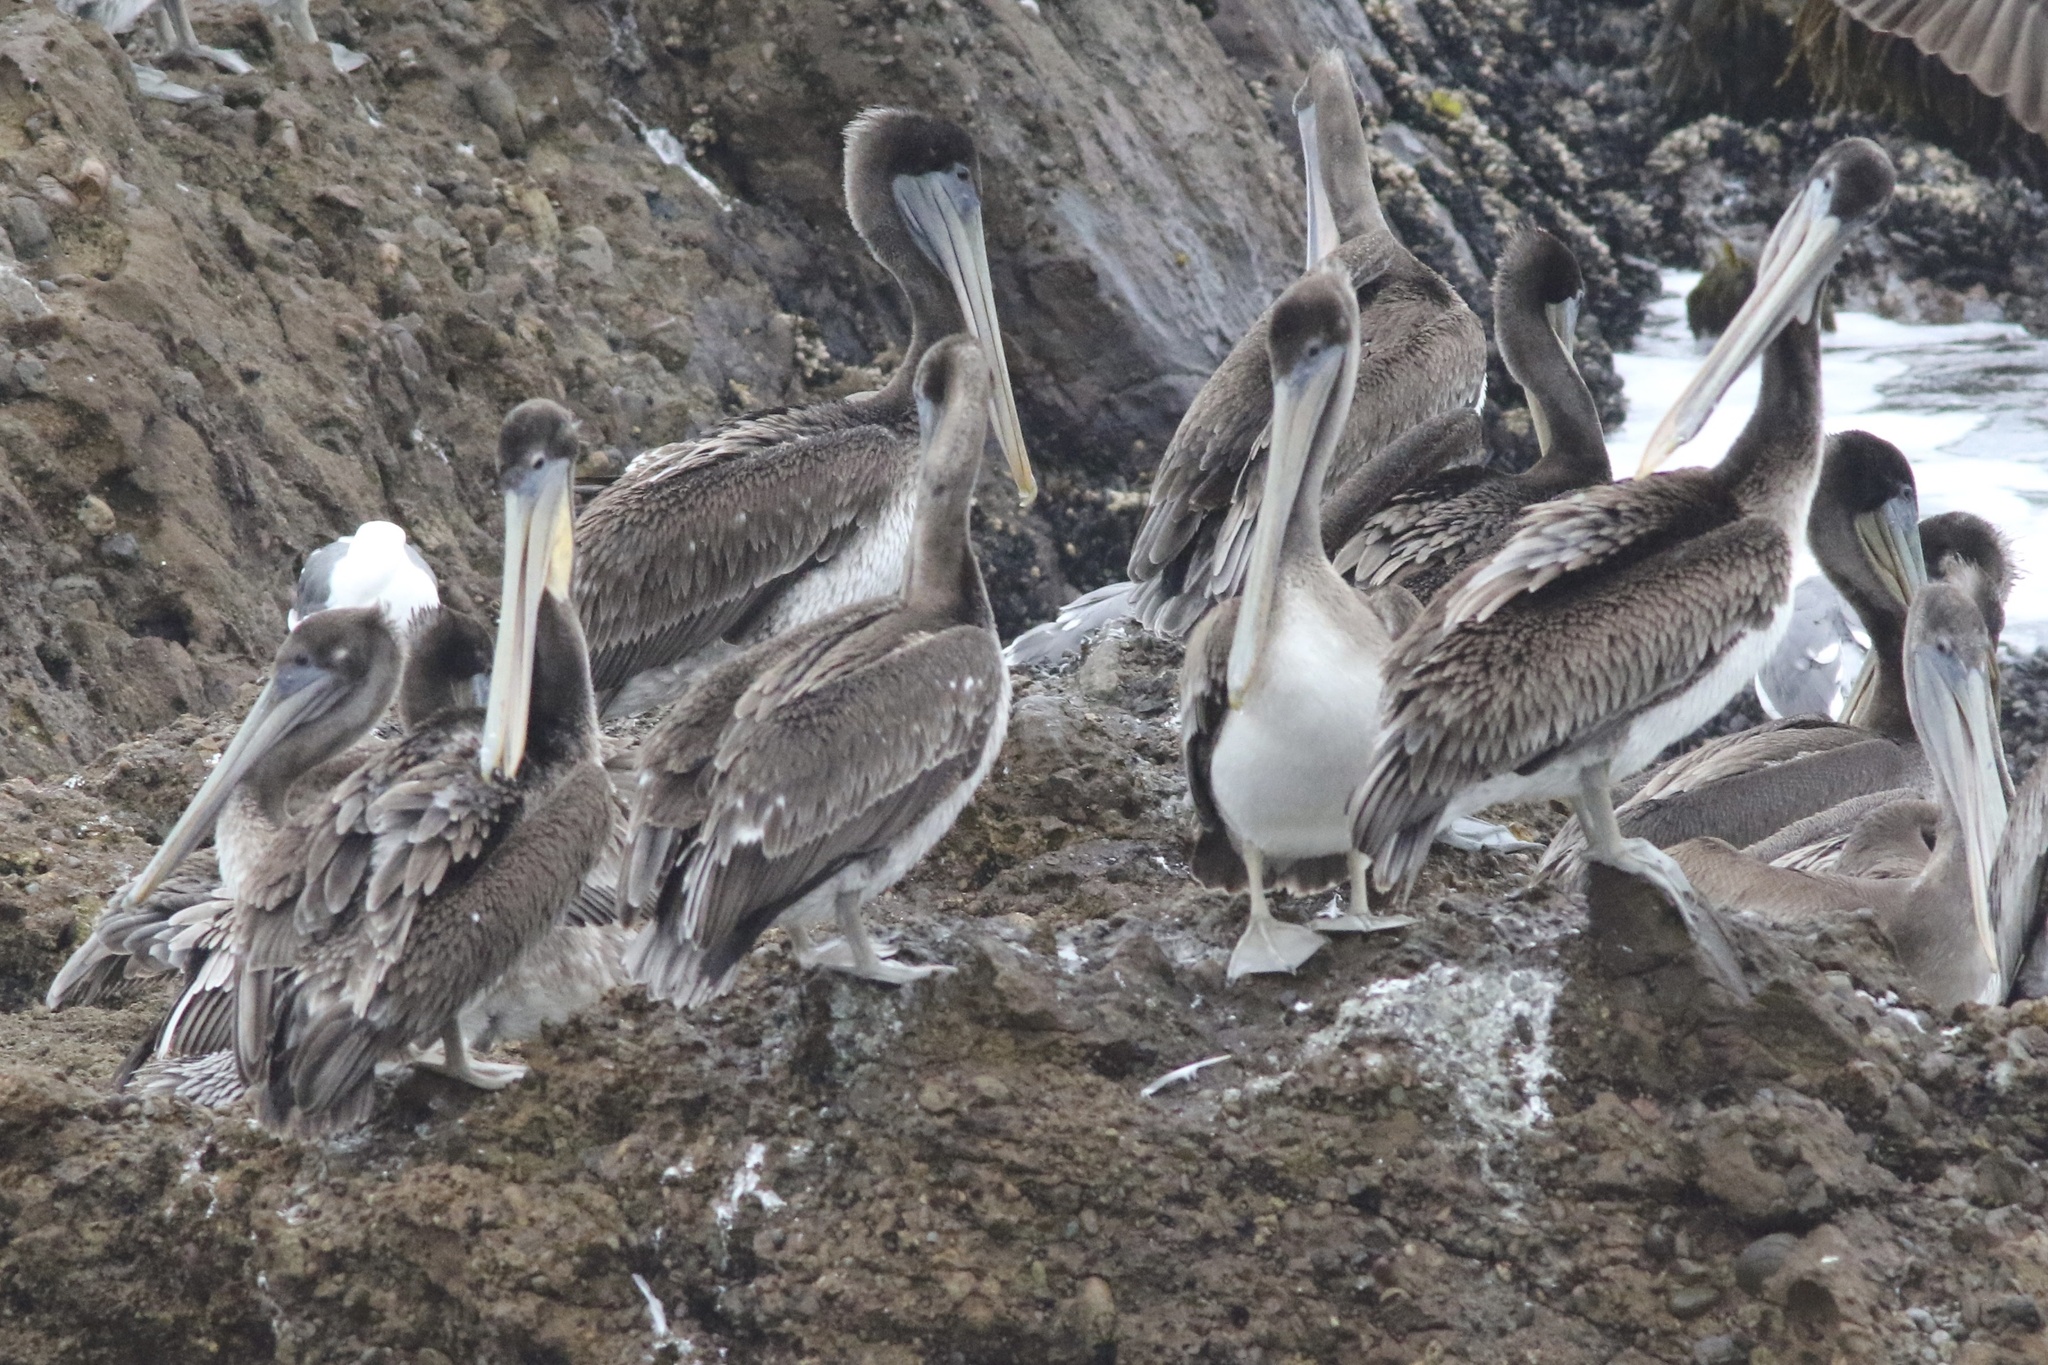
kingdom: Animalia
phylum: Chordata
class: Aves
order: Pelecaniformes
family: Pelecanidae
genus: Pelecanus
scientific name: Pelecanus occidentalis
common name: Brown pelican
